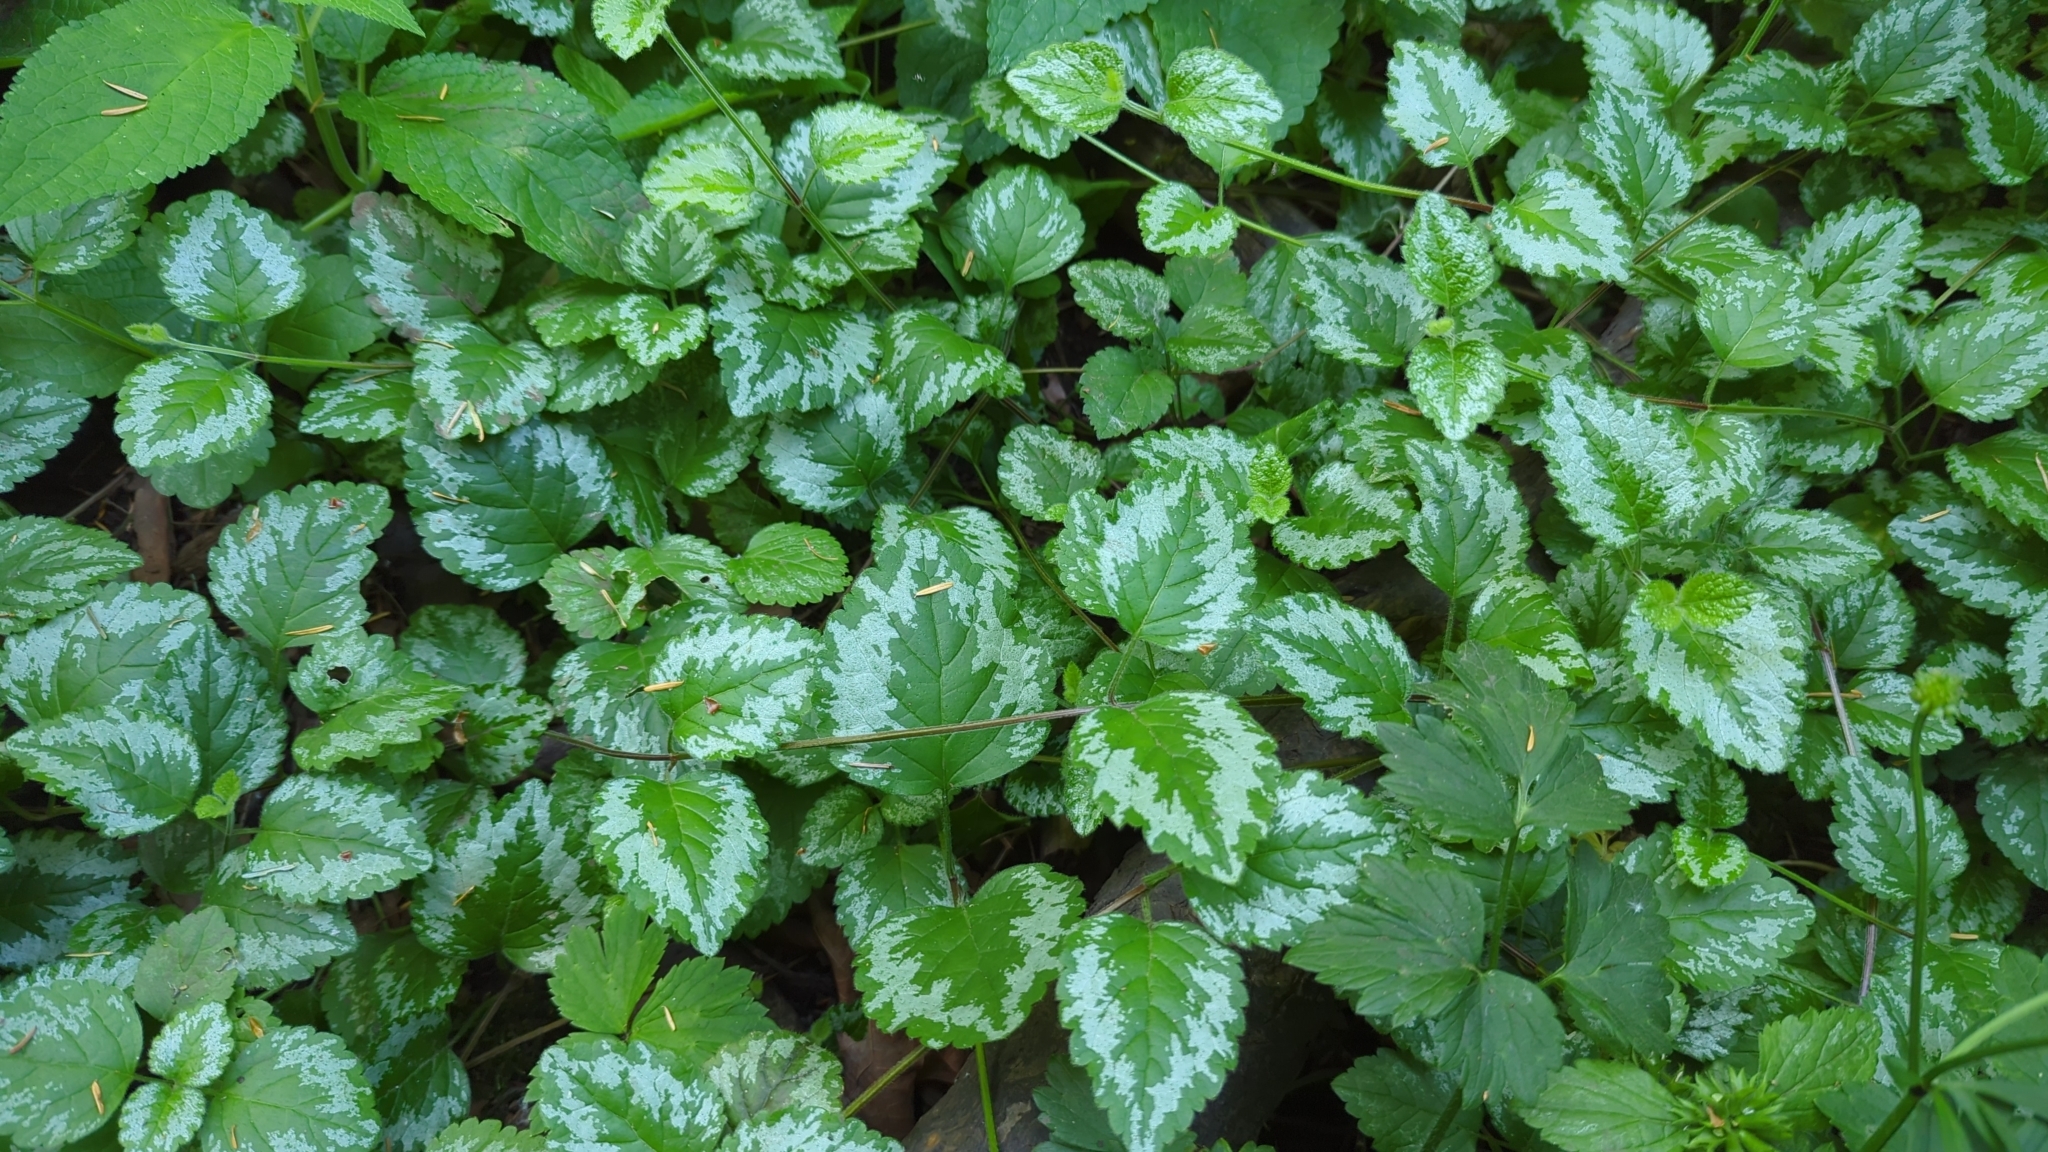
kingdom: Plantae
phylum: Tracheophyta
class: Magnoliopsida
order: Lamiales
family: Lamiaceae
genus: Lamium
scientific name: Lamium galeobdolon
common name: Yellow archangel
